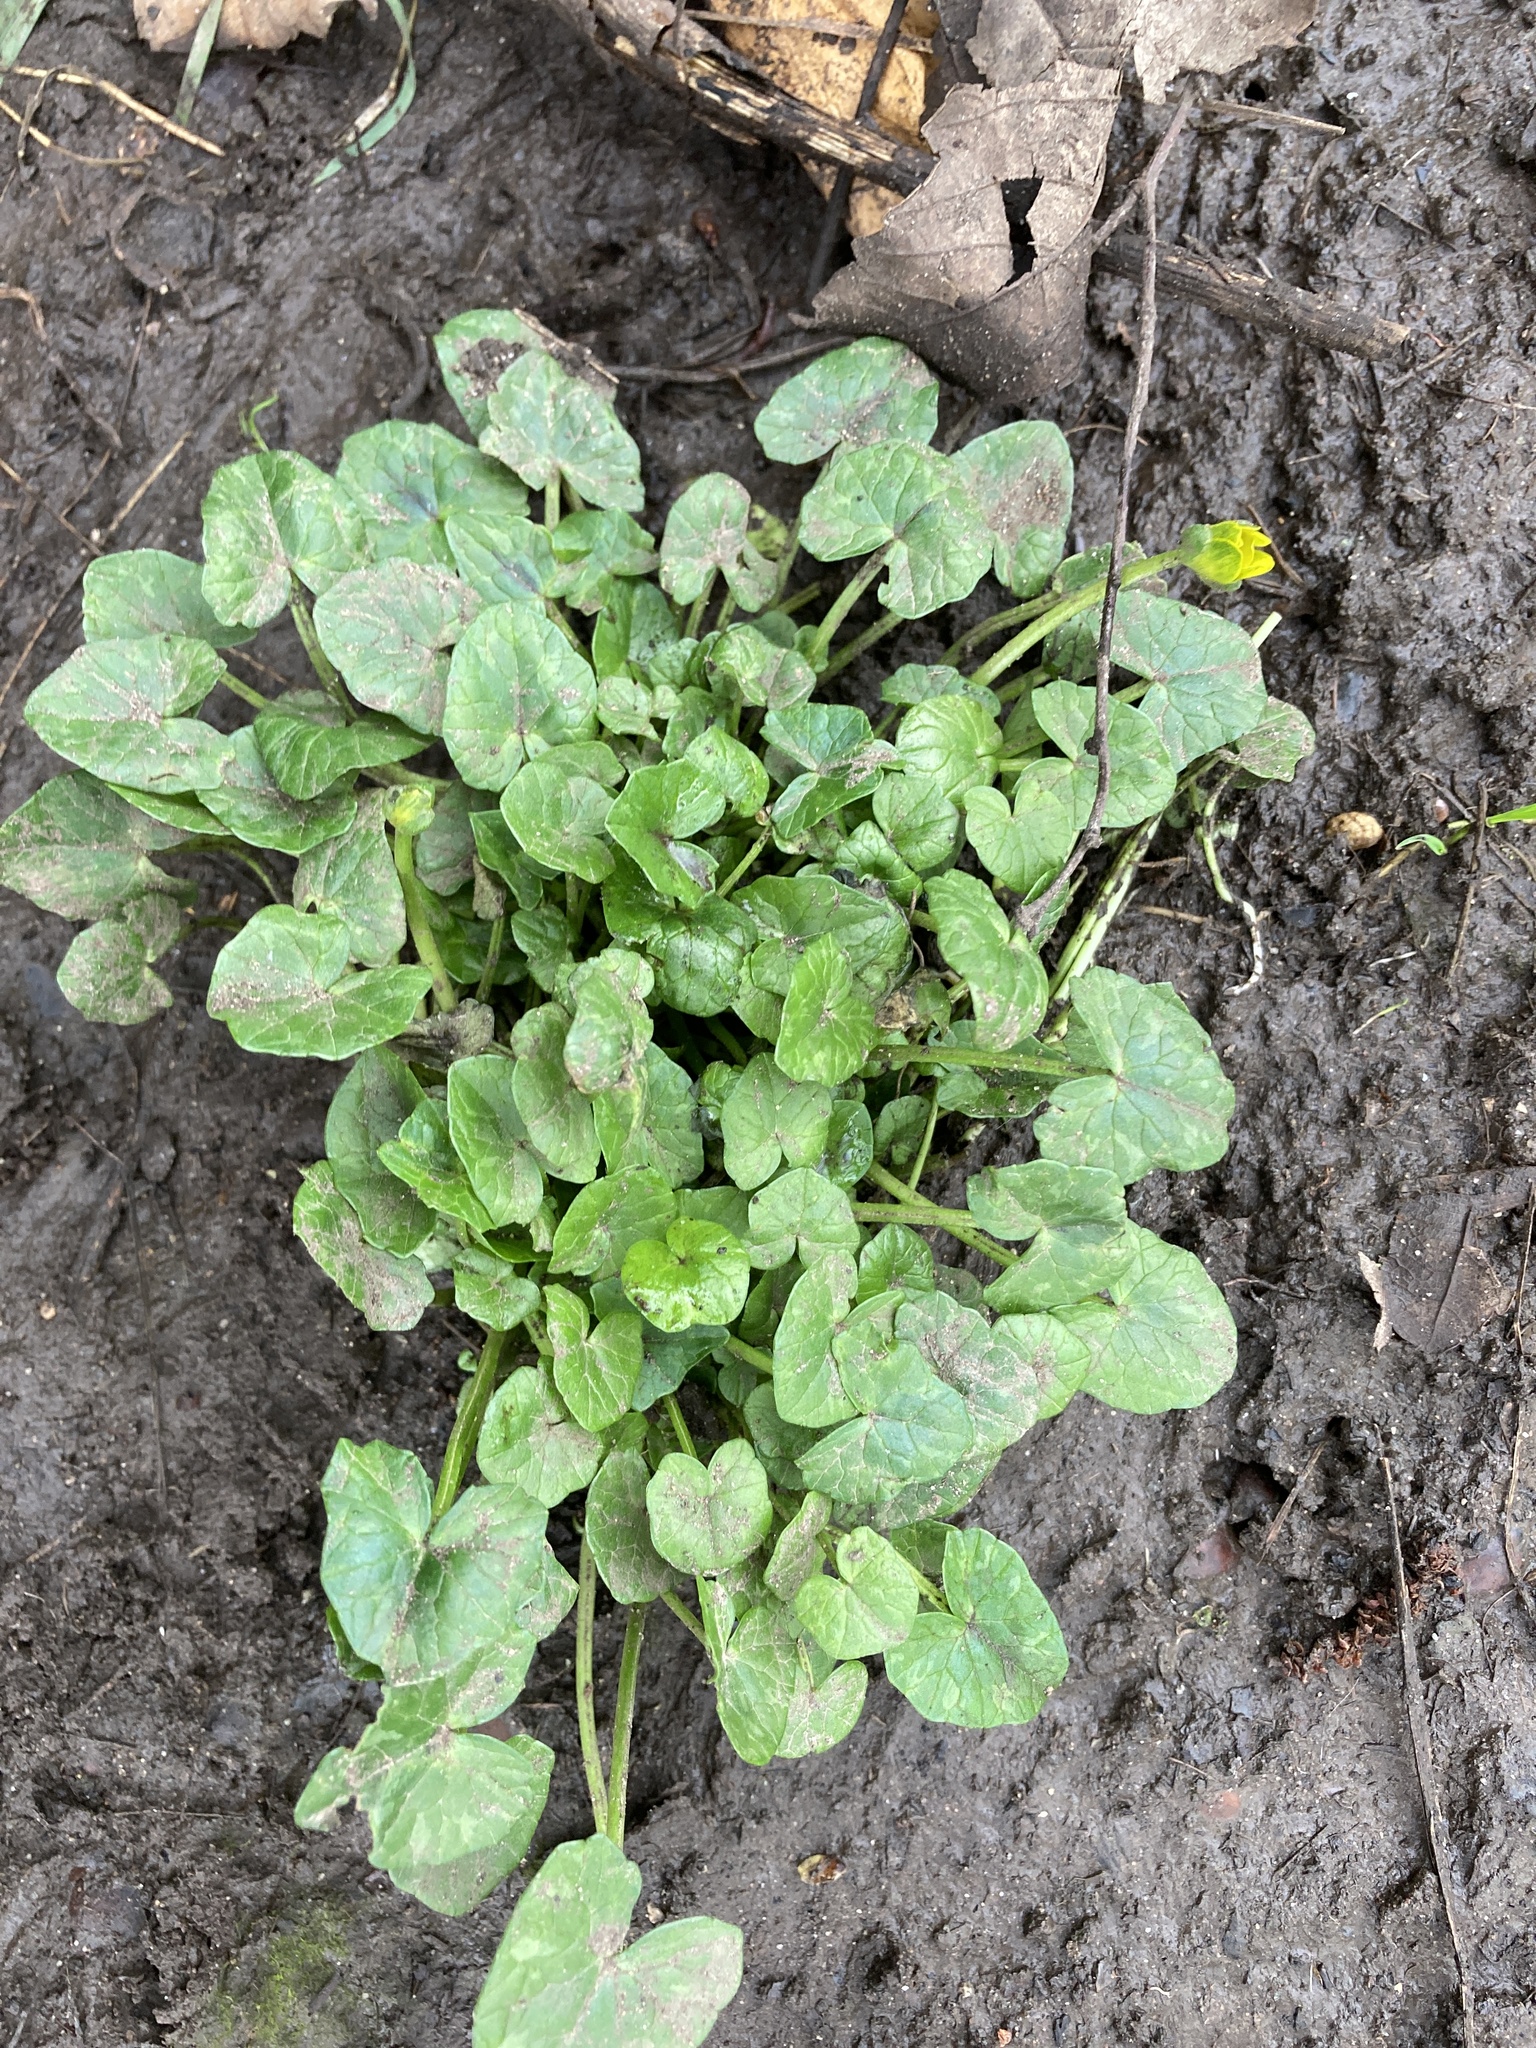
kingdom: Plantae
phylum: Tracheophyta
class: Magnoliopsida
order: Ranunculales
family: Ranunculaceae
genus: Ficaria
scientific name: Ficaria verna
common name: Lesser celandine
